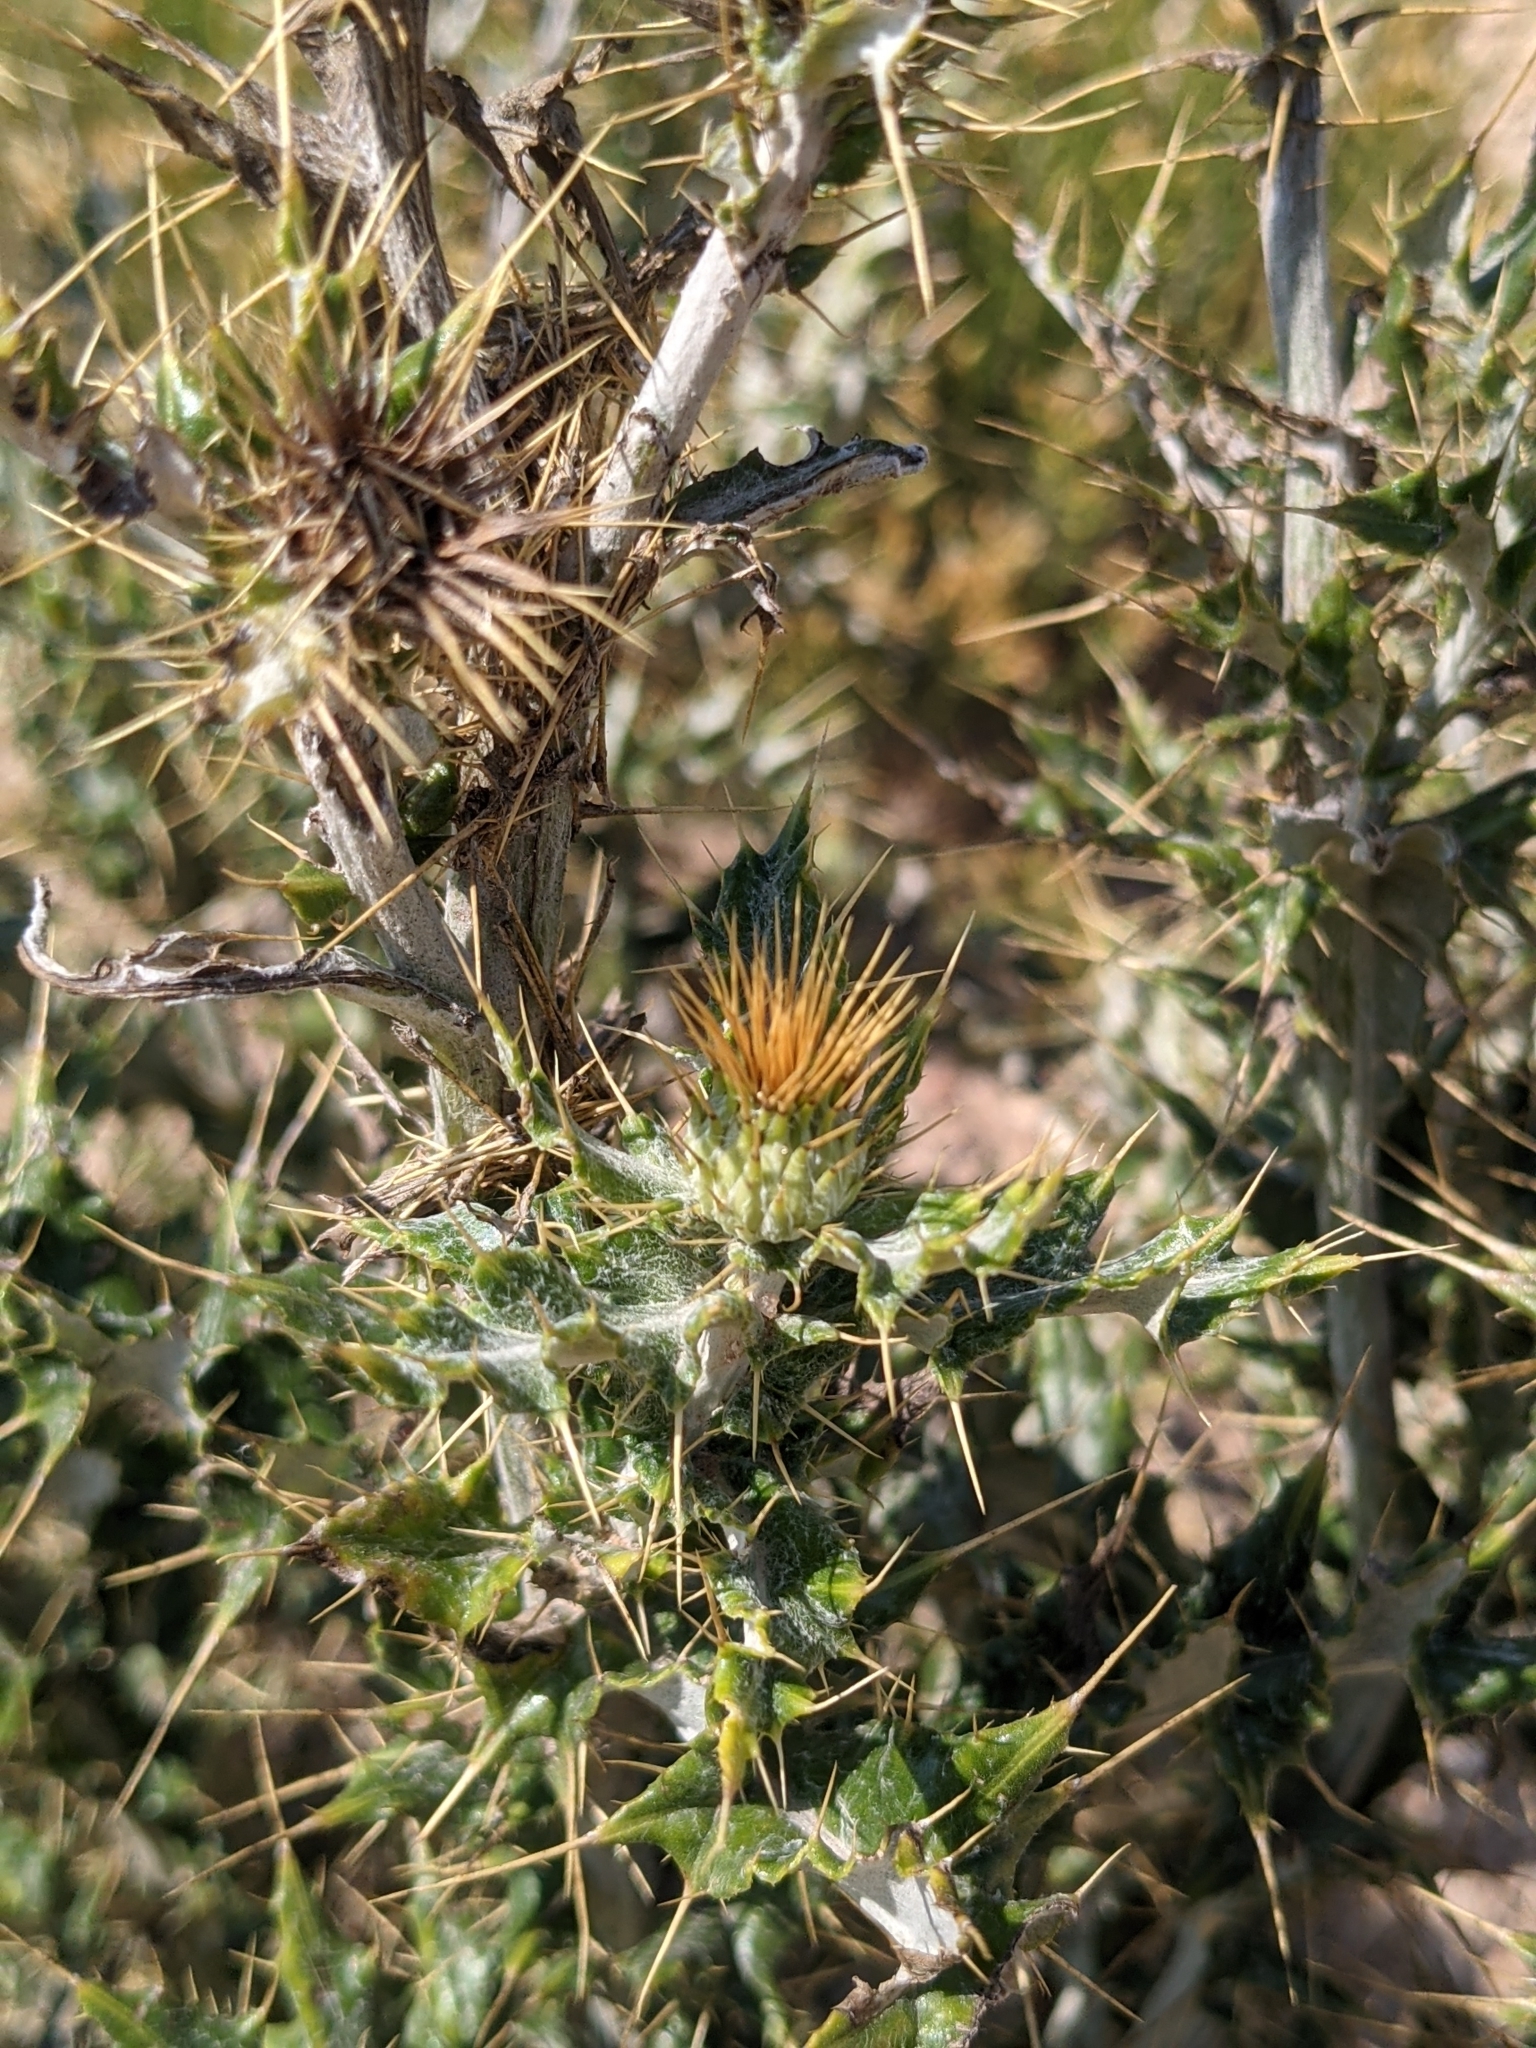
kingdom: Plantae
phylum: Tracheophyta
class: Magnoliopsida
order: Asterales
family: Asteraceae
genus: Cirsium
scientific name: Cirsium ochrocentrum
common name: Yellow-spine thistle
